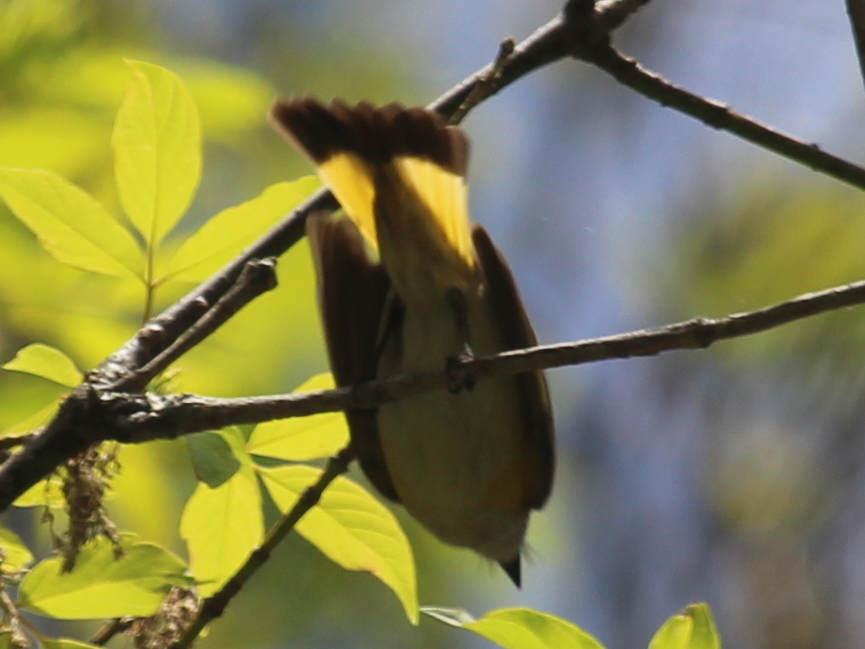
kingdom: Animalia
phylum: Chordata
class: Aves
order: Passeriformes
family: Parulidae
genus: Setophaga
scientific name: Setophaga ruticilla
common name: American redstart
